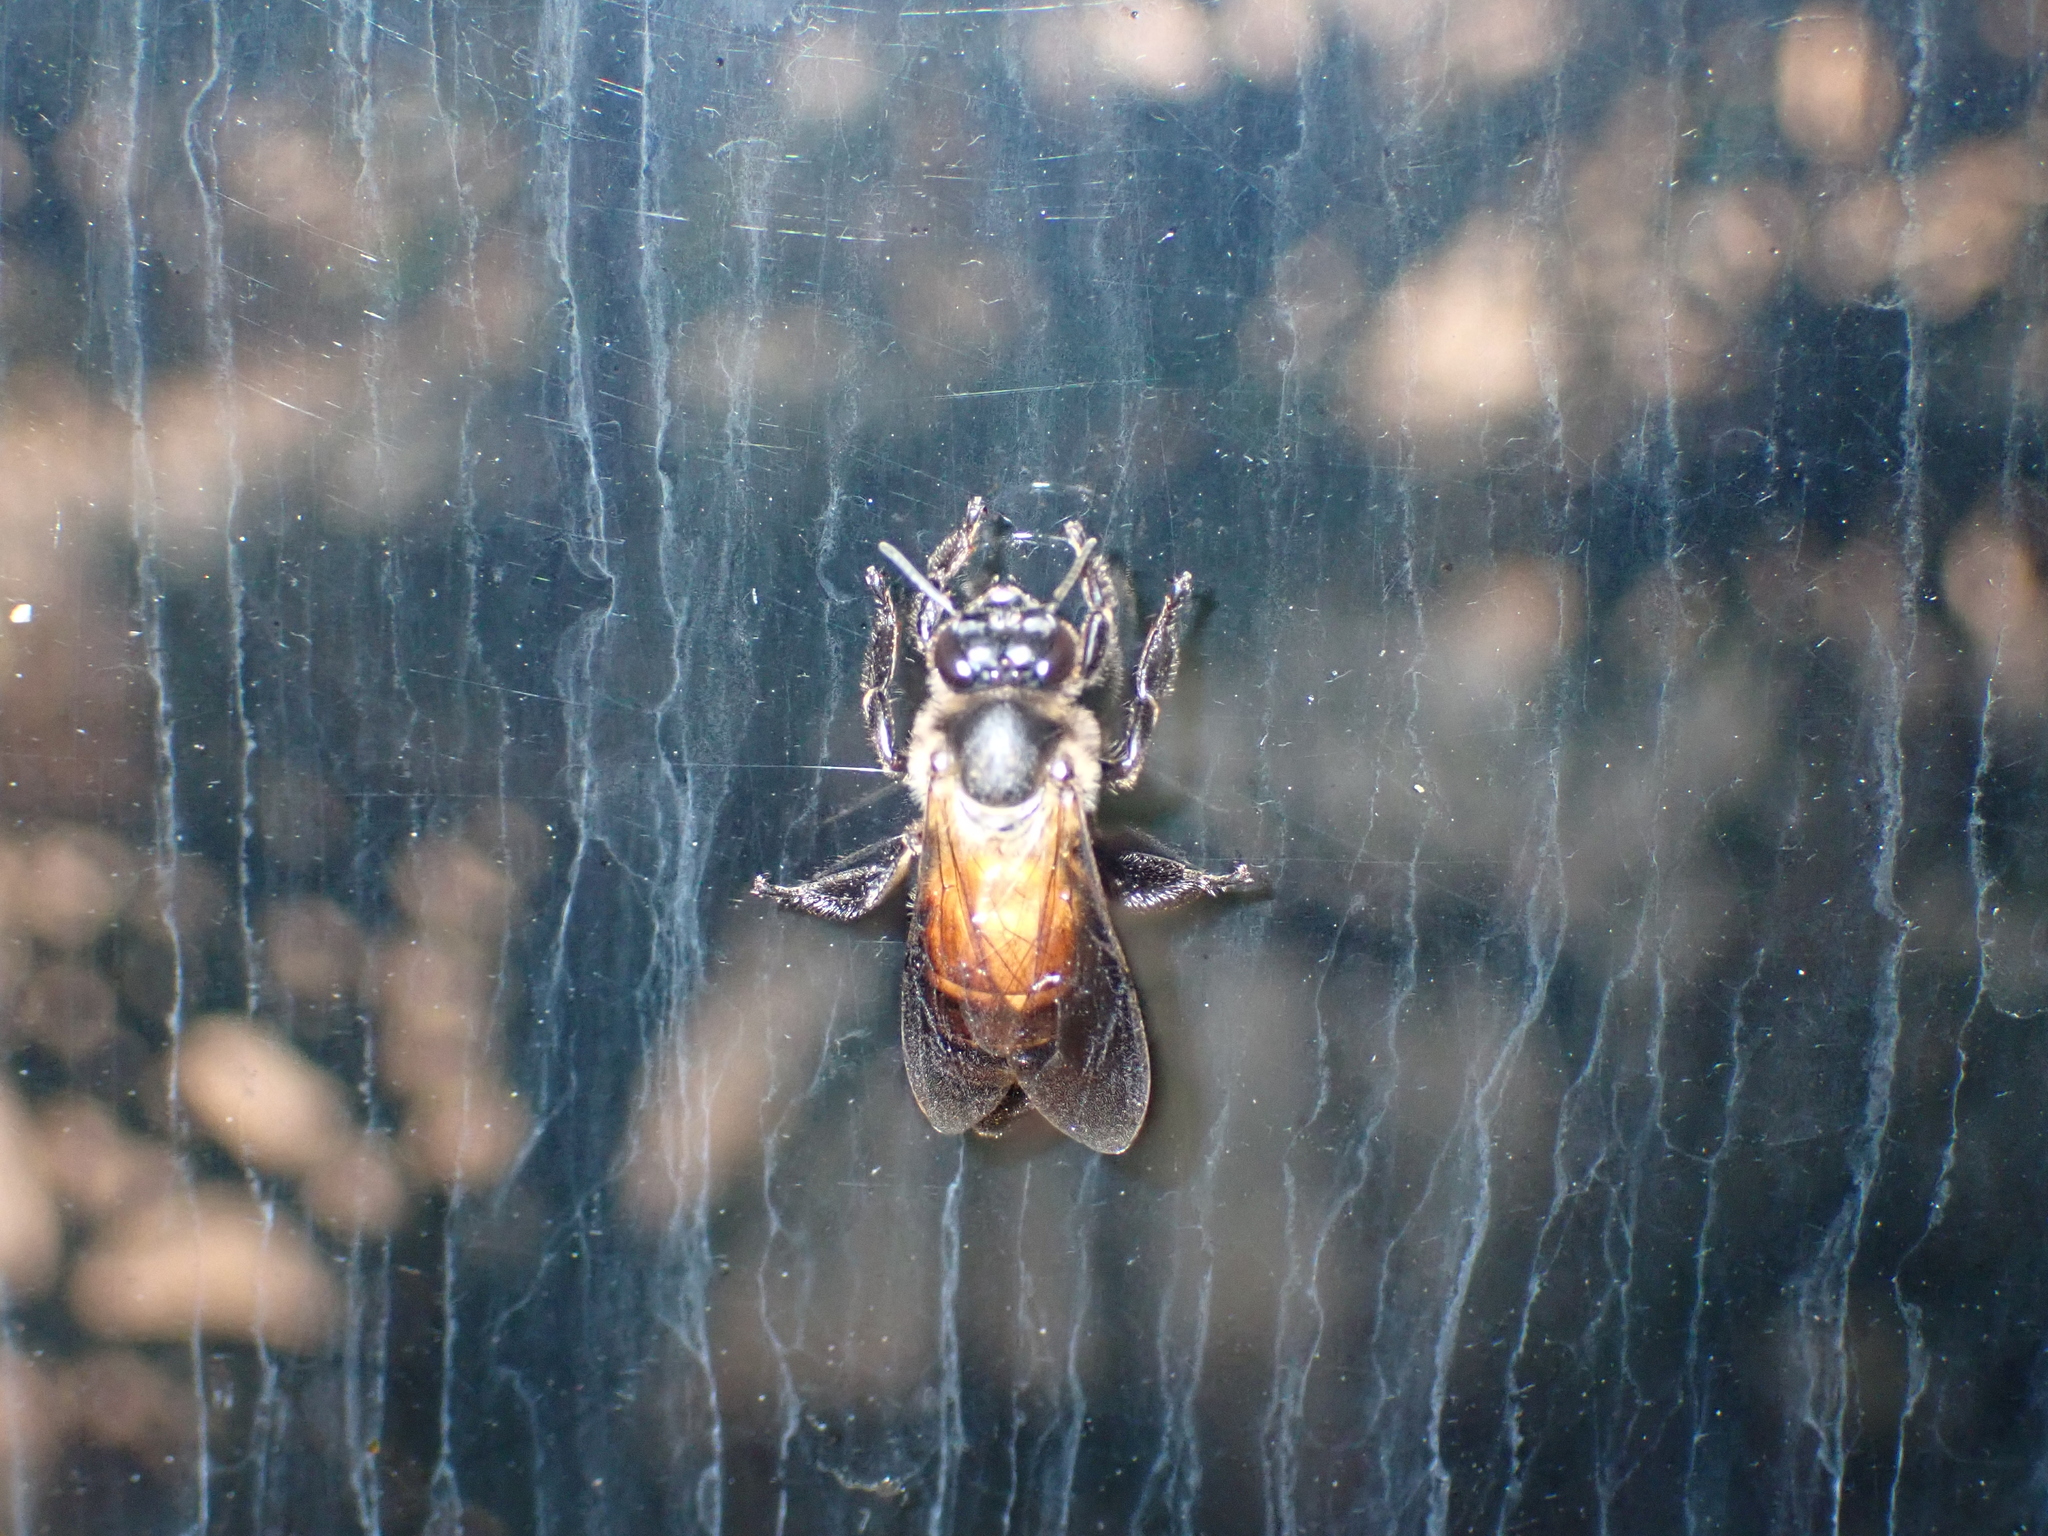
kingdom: Animalia
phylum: Arthropoda
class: Insecta
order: Hymenoptera
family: Apidae
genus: Apis
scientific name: Apis dorsata
